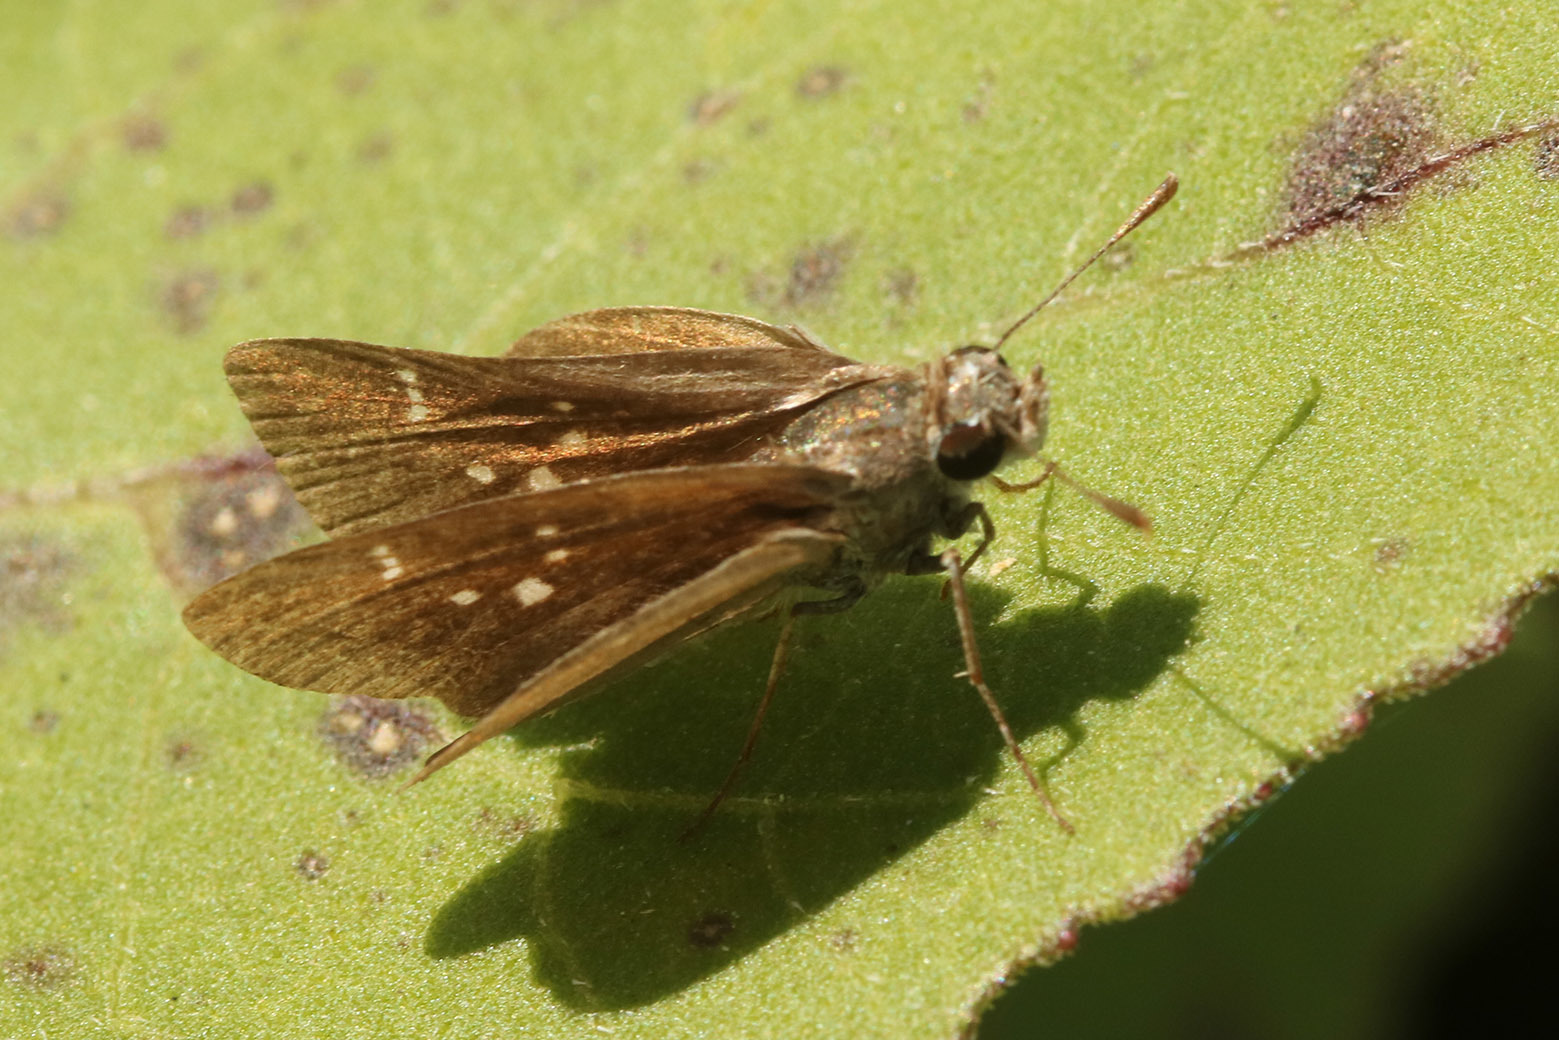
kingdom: Animalia
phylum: Arthropoda
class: Insecta
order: Lepidoptera
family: Hesperiidae
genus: Lerodea
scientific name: Lerodea eufala
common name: Eufala skipper
